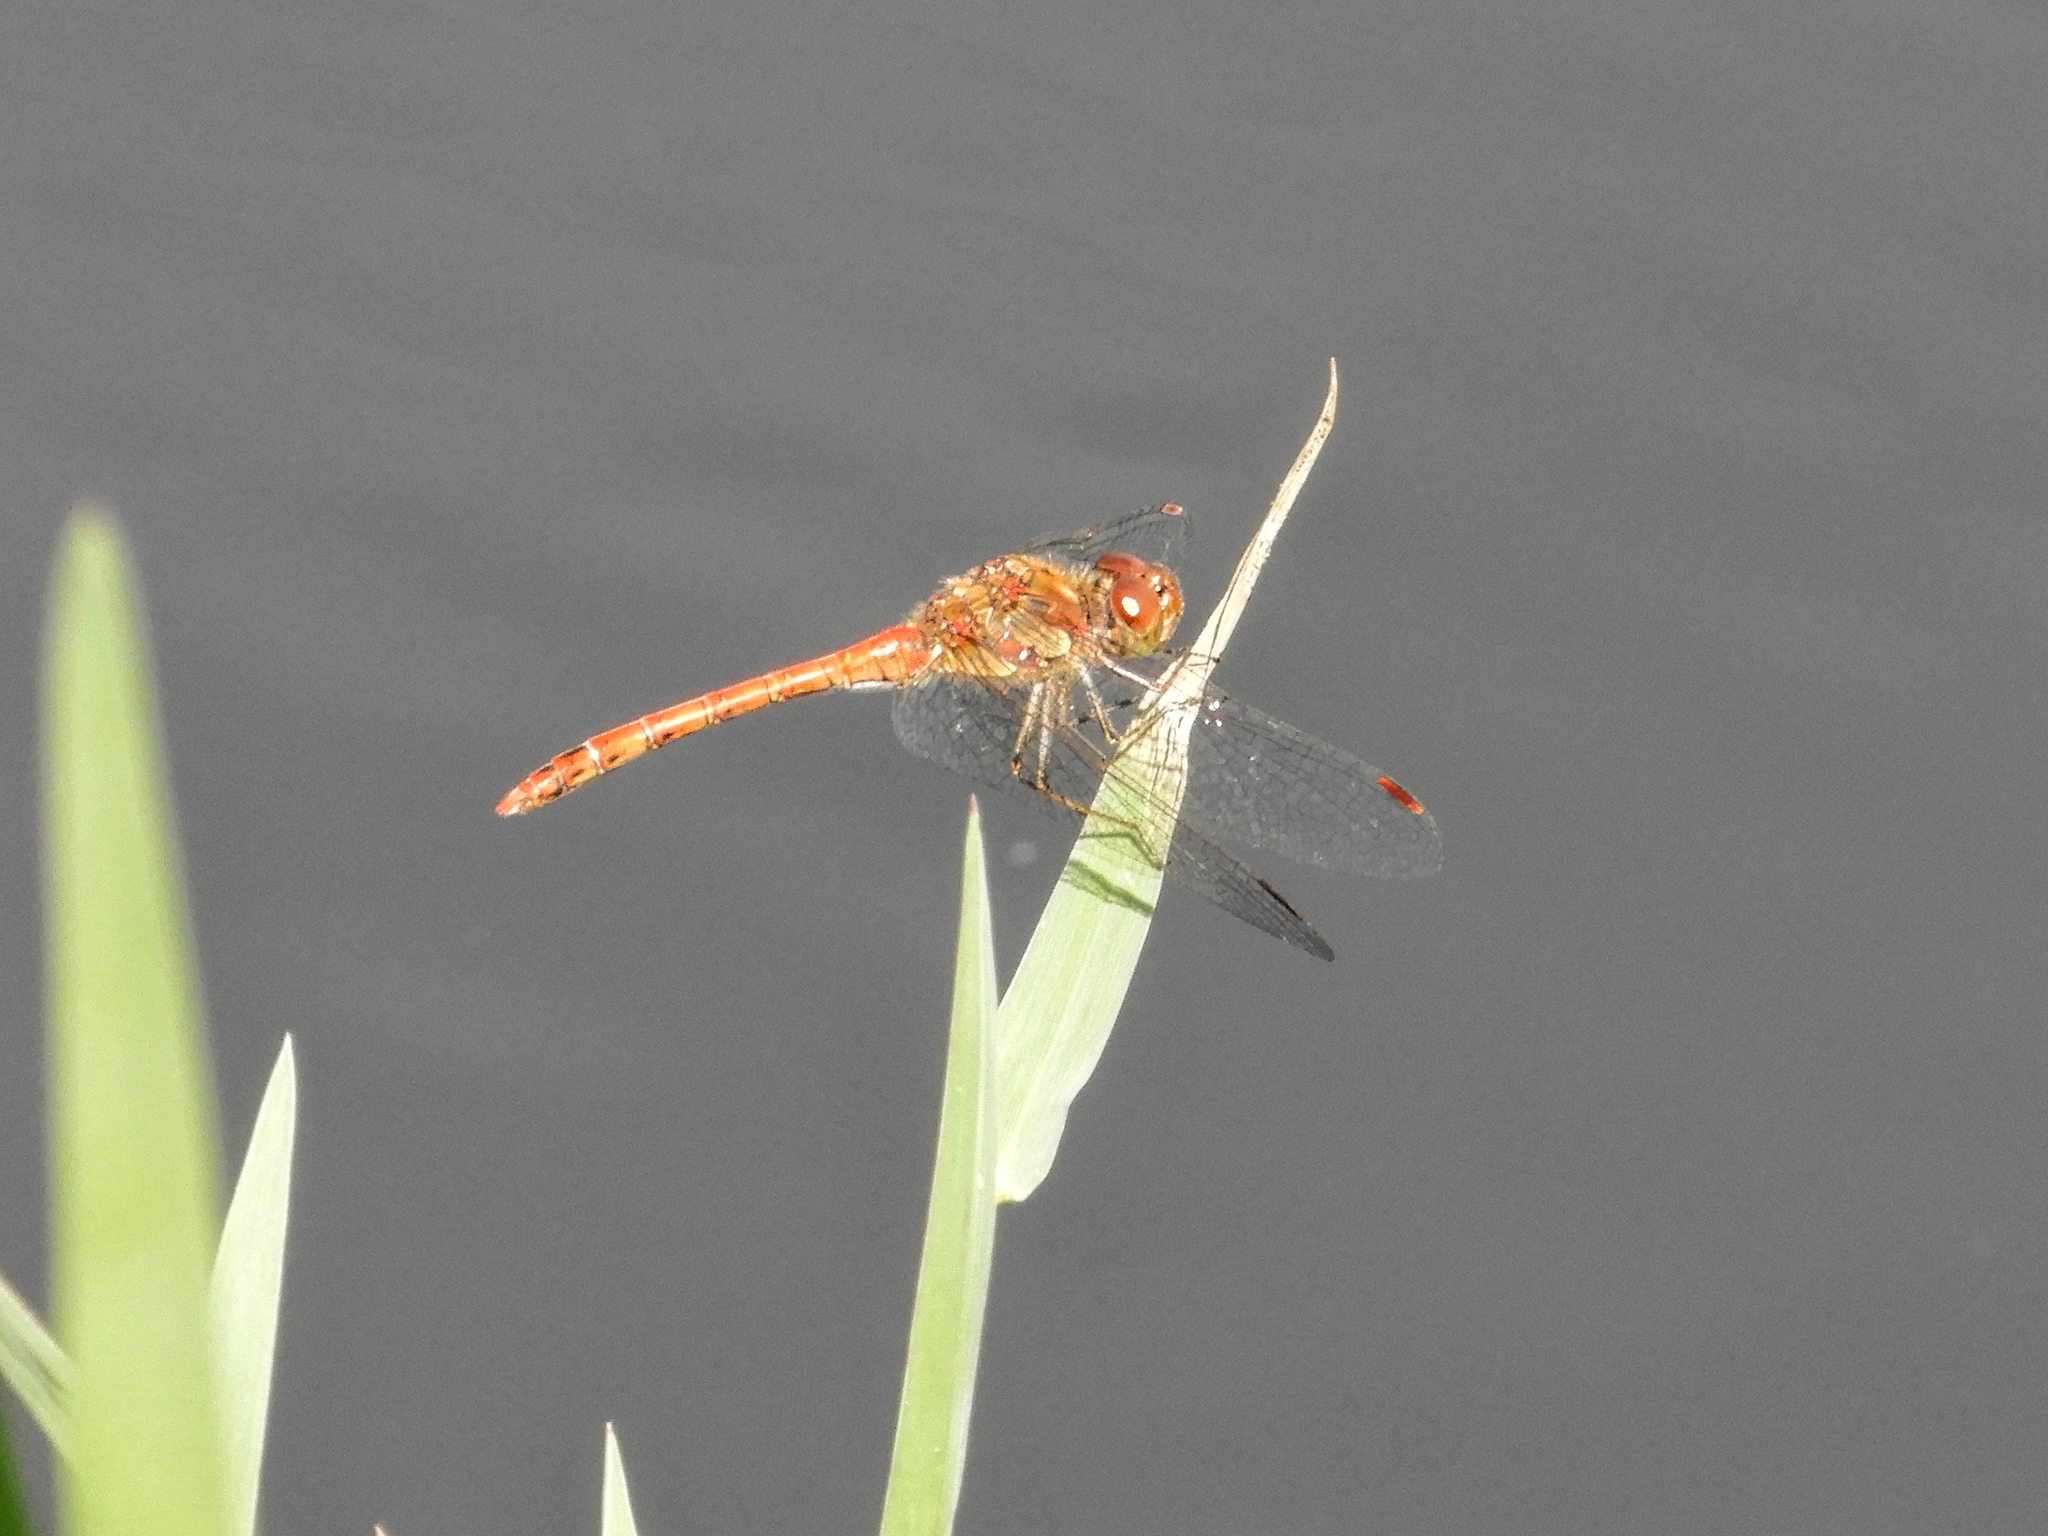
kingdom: Animalia
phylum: Arthropoda
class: Insecta
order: Odonata
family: Libellulidae
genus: Sympetrum
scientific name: Sympetrum striolatum
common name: Common darter
